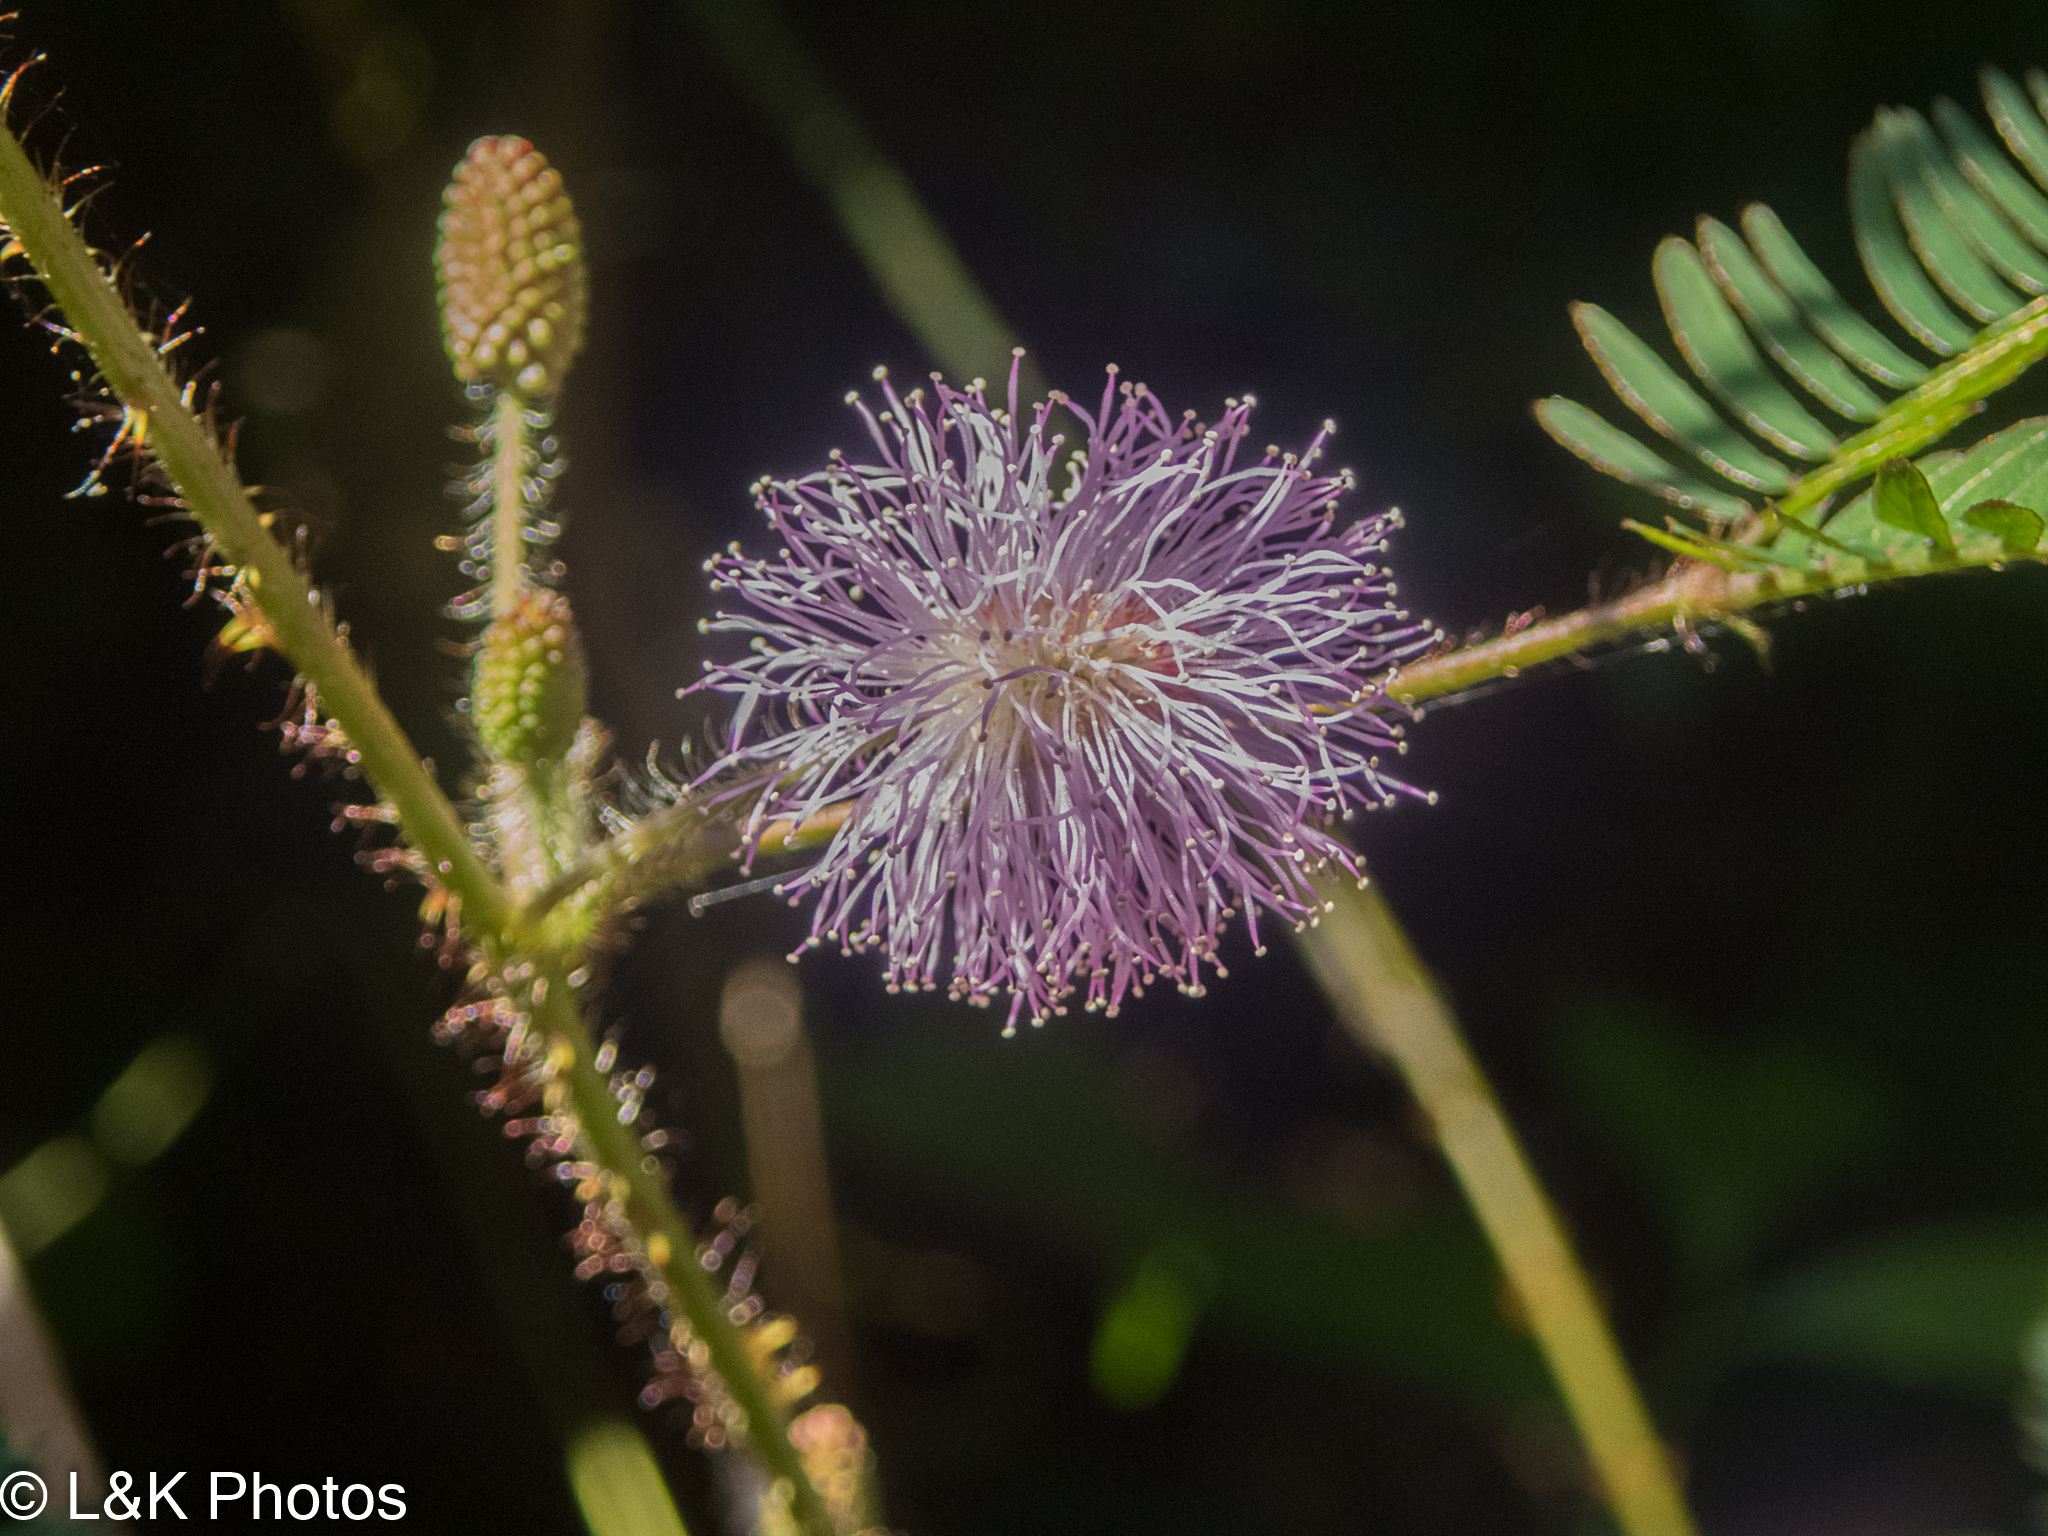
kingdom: Plantae
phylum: Tracheophyta
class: Magnoliopsida
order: Fabales
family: Fabaceae
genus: Mimosa
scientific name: Mimosa pudica
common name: Sensitive plant
